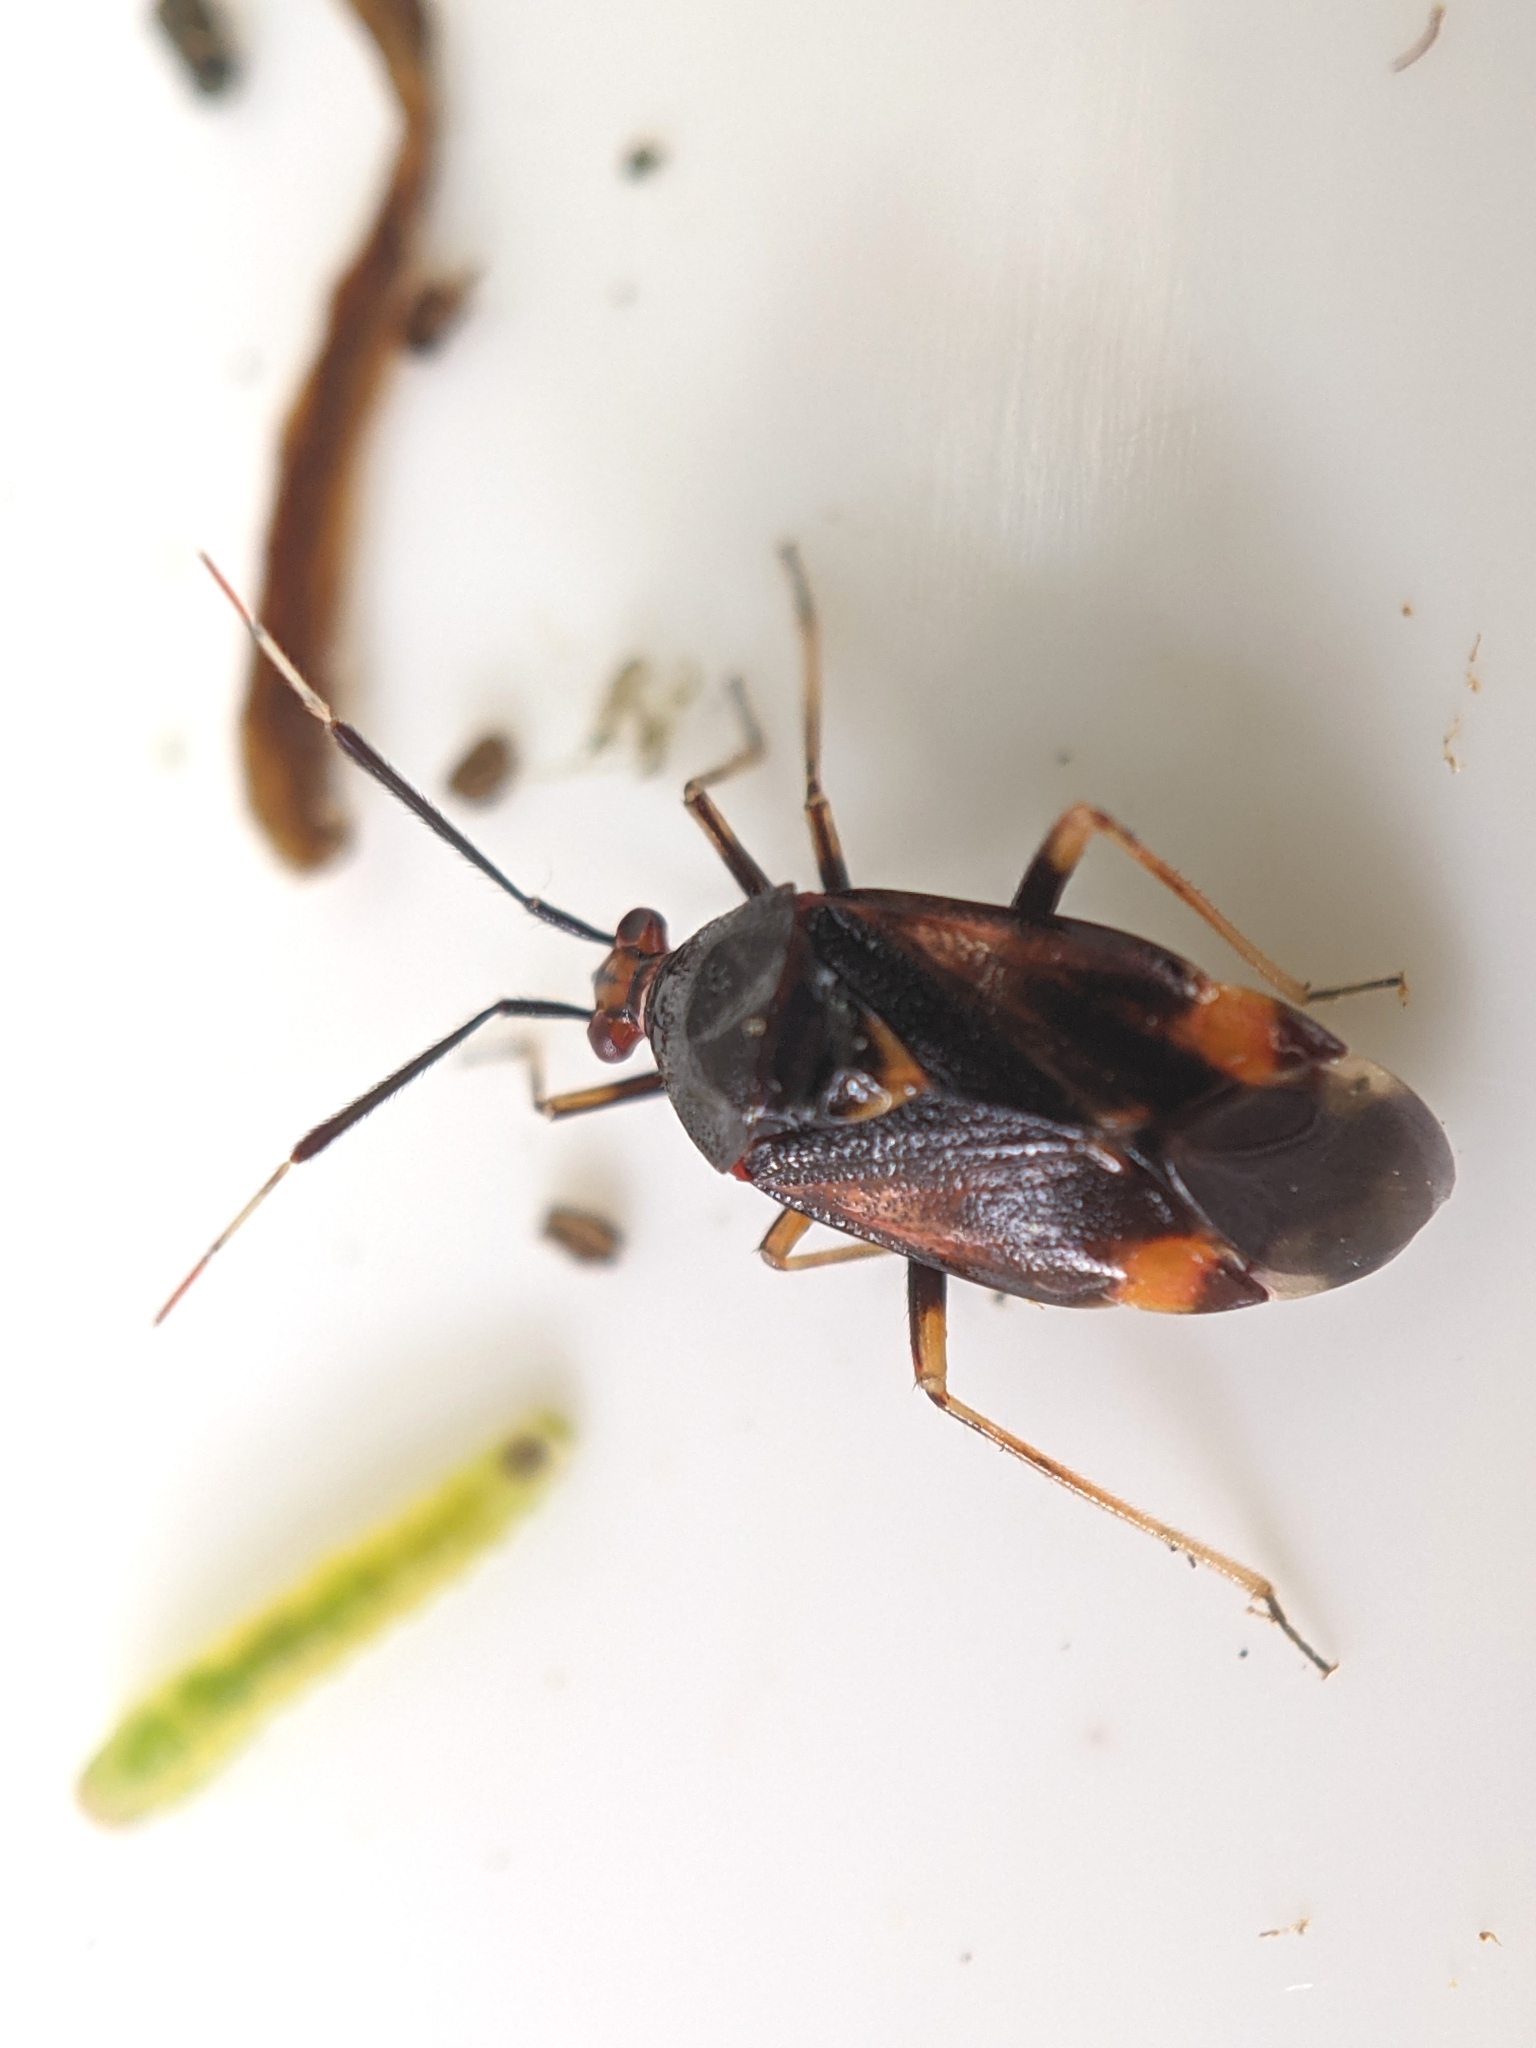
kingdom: Animalia
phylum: Arthropoda
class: Insecta
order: Hemiptera
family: Miridae
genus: Deraeocoris
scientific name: Deraeocoris ruber
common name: Plant bug
